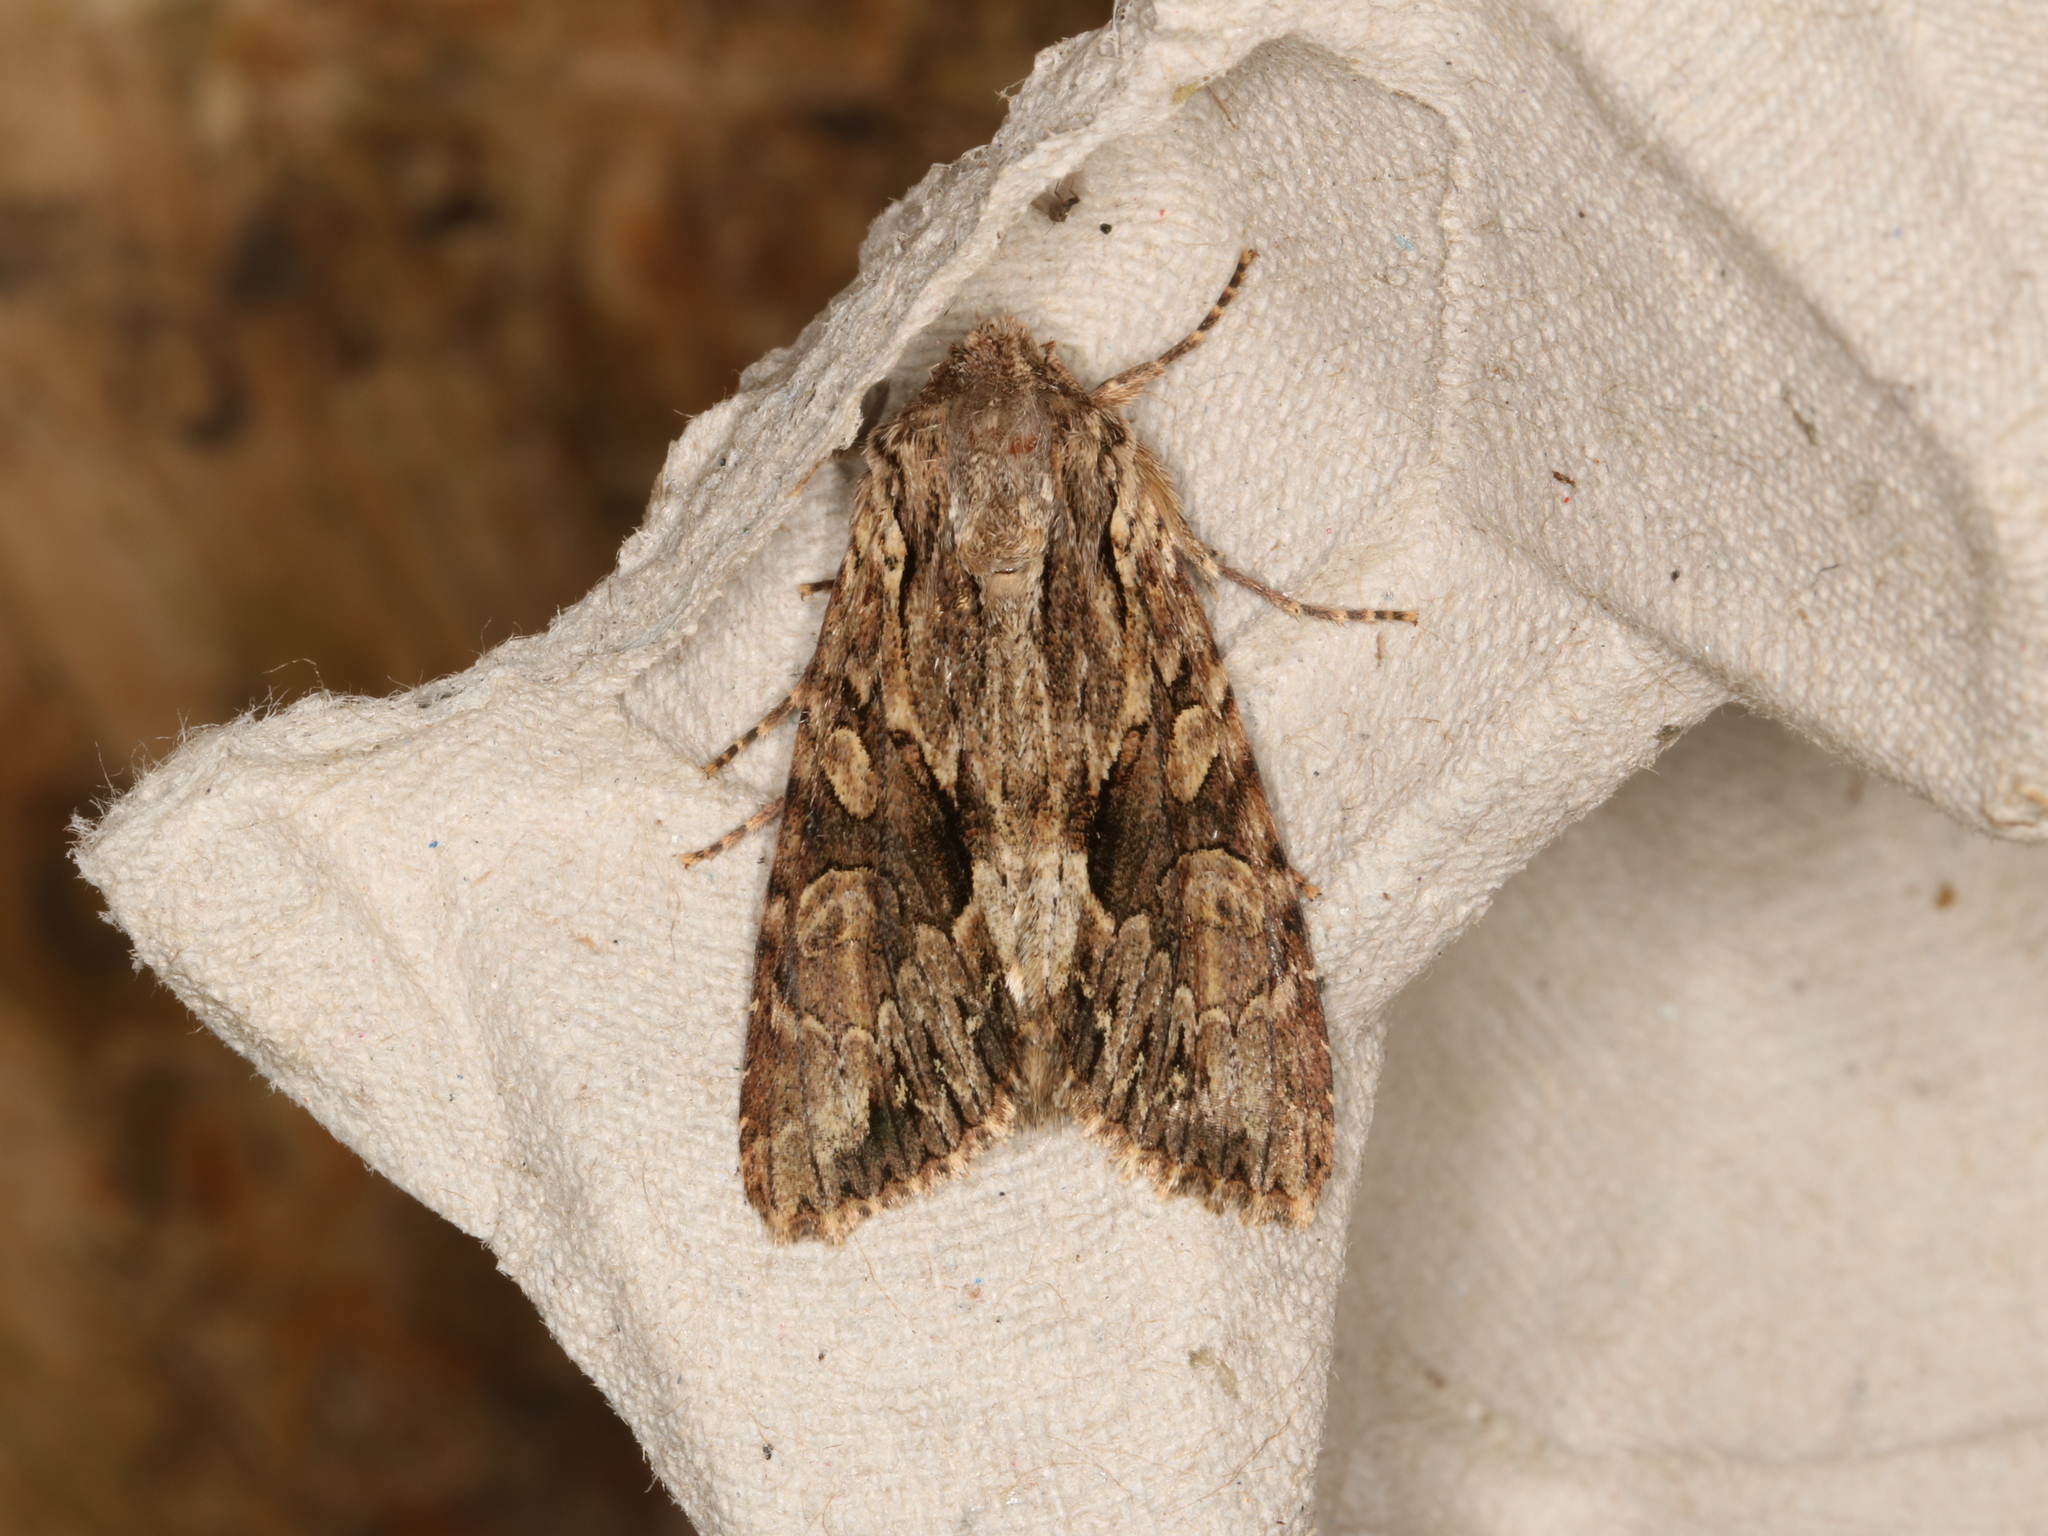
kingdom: Animalia
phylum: Arthropoda
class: Insecta
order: Lepidoptera
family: Noctuidae
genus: Apamea
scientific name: Apamea monoglypha
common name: Dark arches
